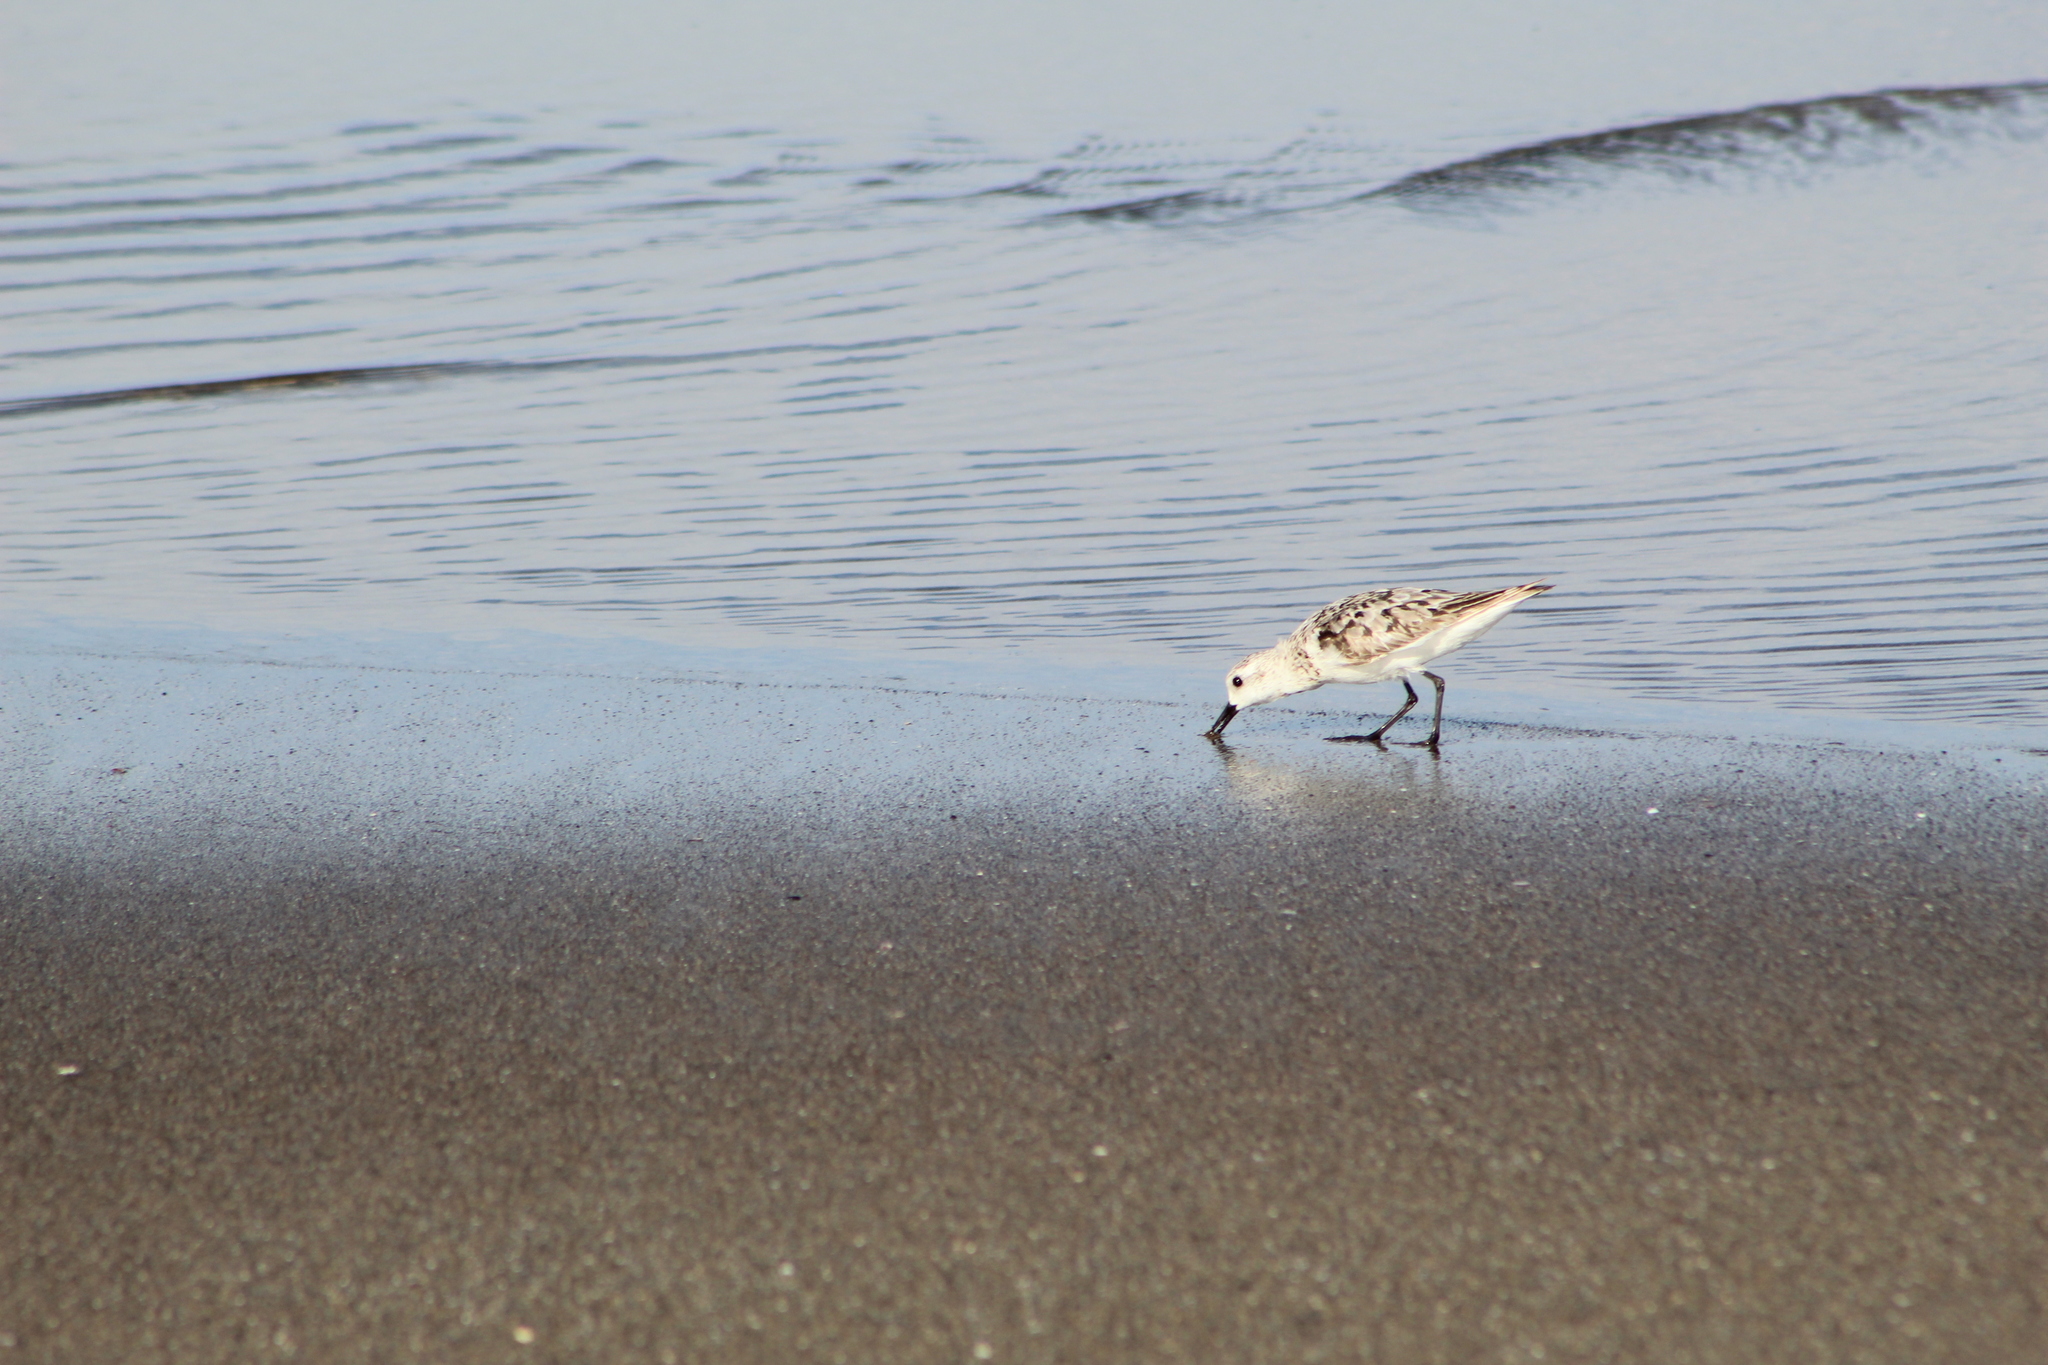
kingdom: Animalia
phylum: Chordata
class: Aves
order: Charadriiformes
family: Scolopacidae
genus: Calidris
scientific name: Calidris alba
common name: Sanderling
